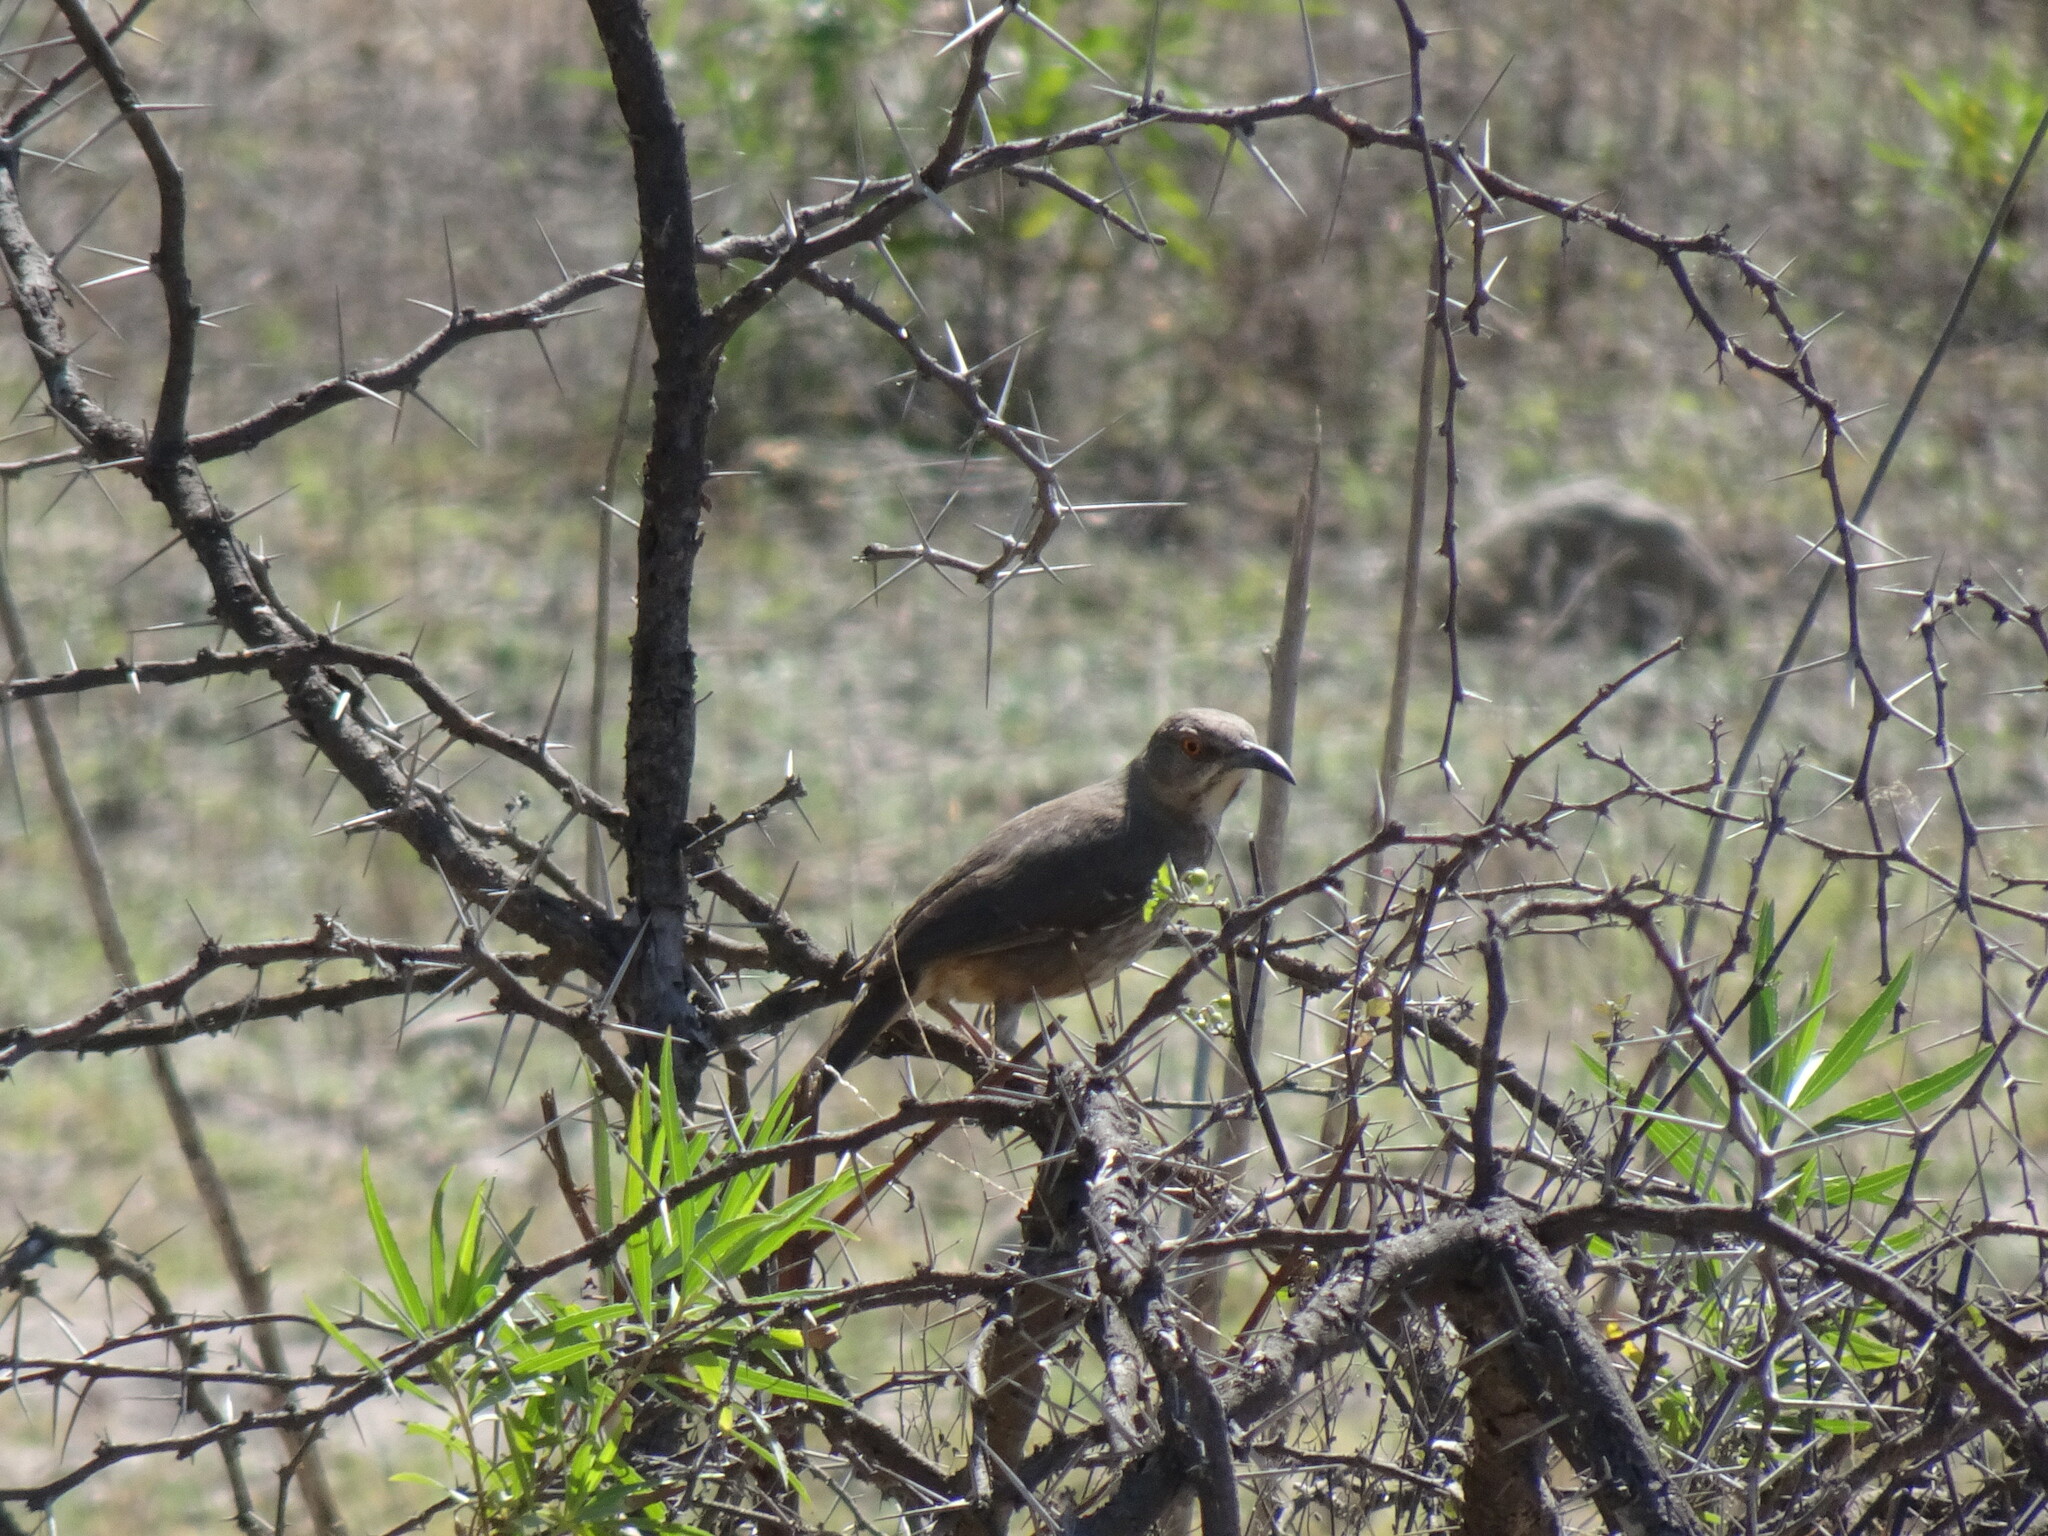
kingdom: Animalia
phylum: Chordata
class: Aves
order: Passeriformes
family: Mimidae
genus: Toxostoma
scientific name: Toxostoma curvirostre
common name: Curve-billed thrasher
